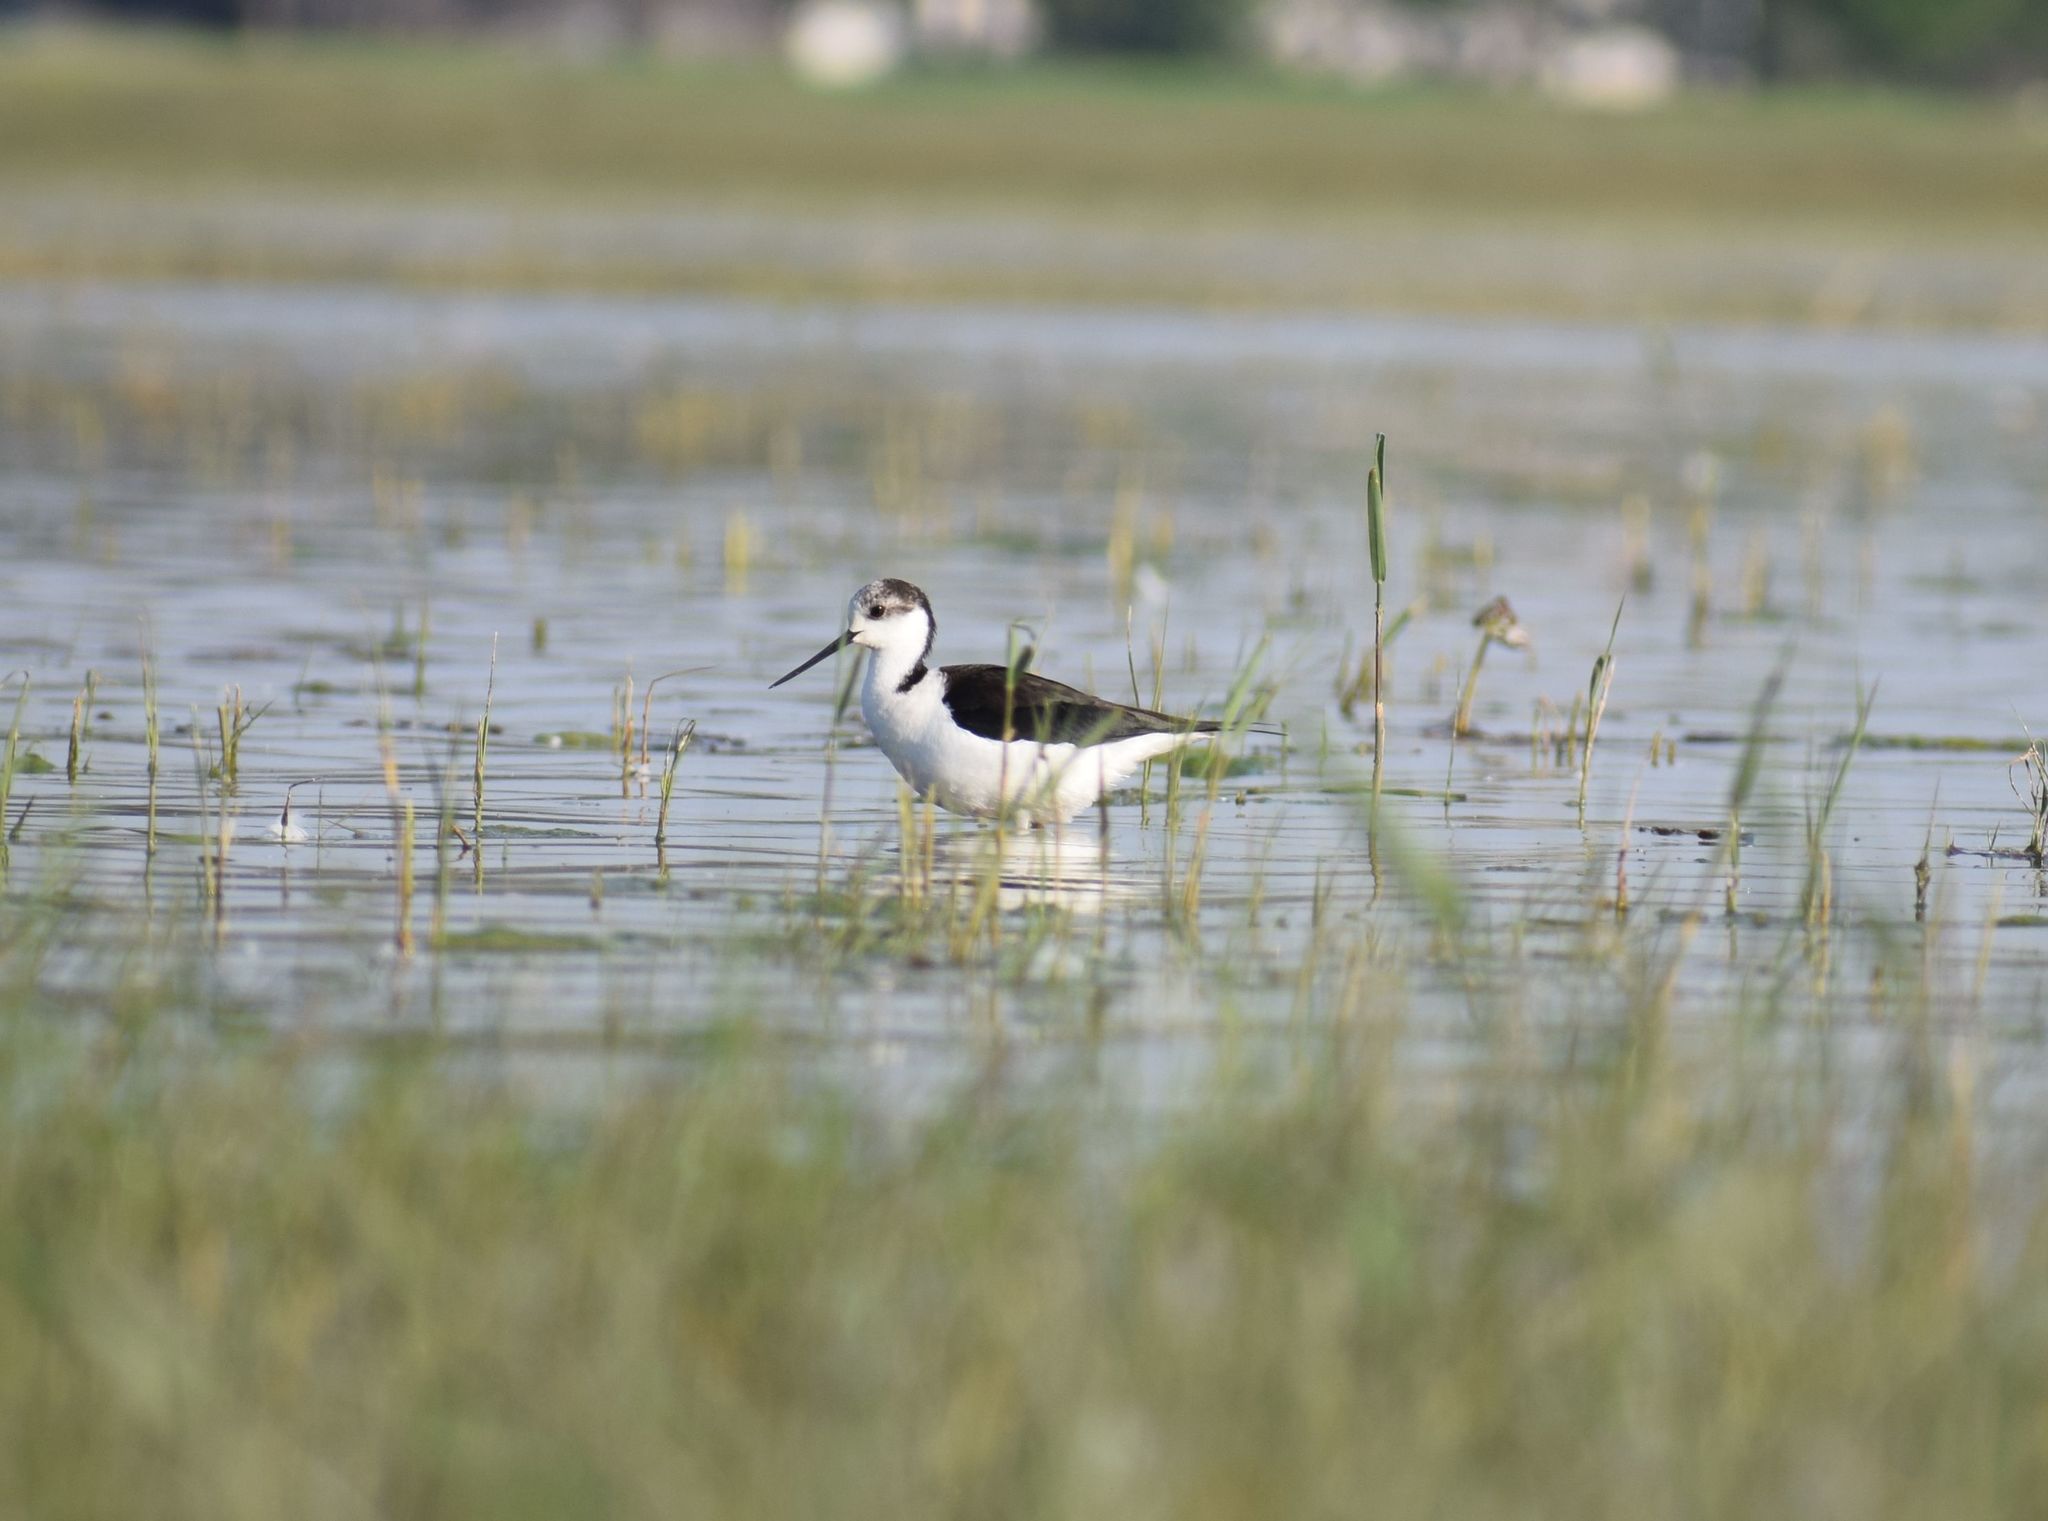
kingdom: Animalia
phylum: Chordata
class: Aves
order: Charadriiformes
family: Recurvirostridae
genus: Himantopus
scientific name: Himantopus himantopus
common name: Black-winged stilt
